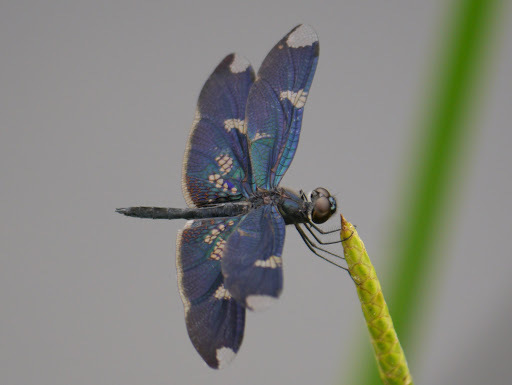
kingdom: Animalia
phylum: Arthropoda
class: Insecta
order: Odonata
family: Libellulidae
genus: Rhyothemis
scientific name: Rhyothemis fenestrina
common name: Skylight flutterer
